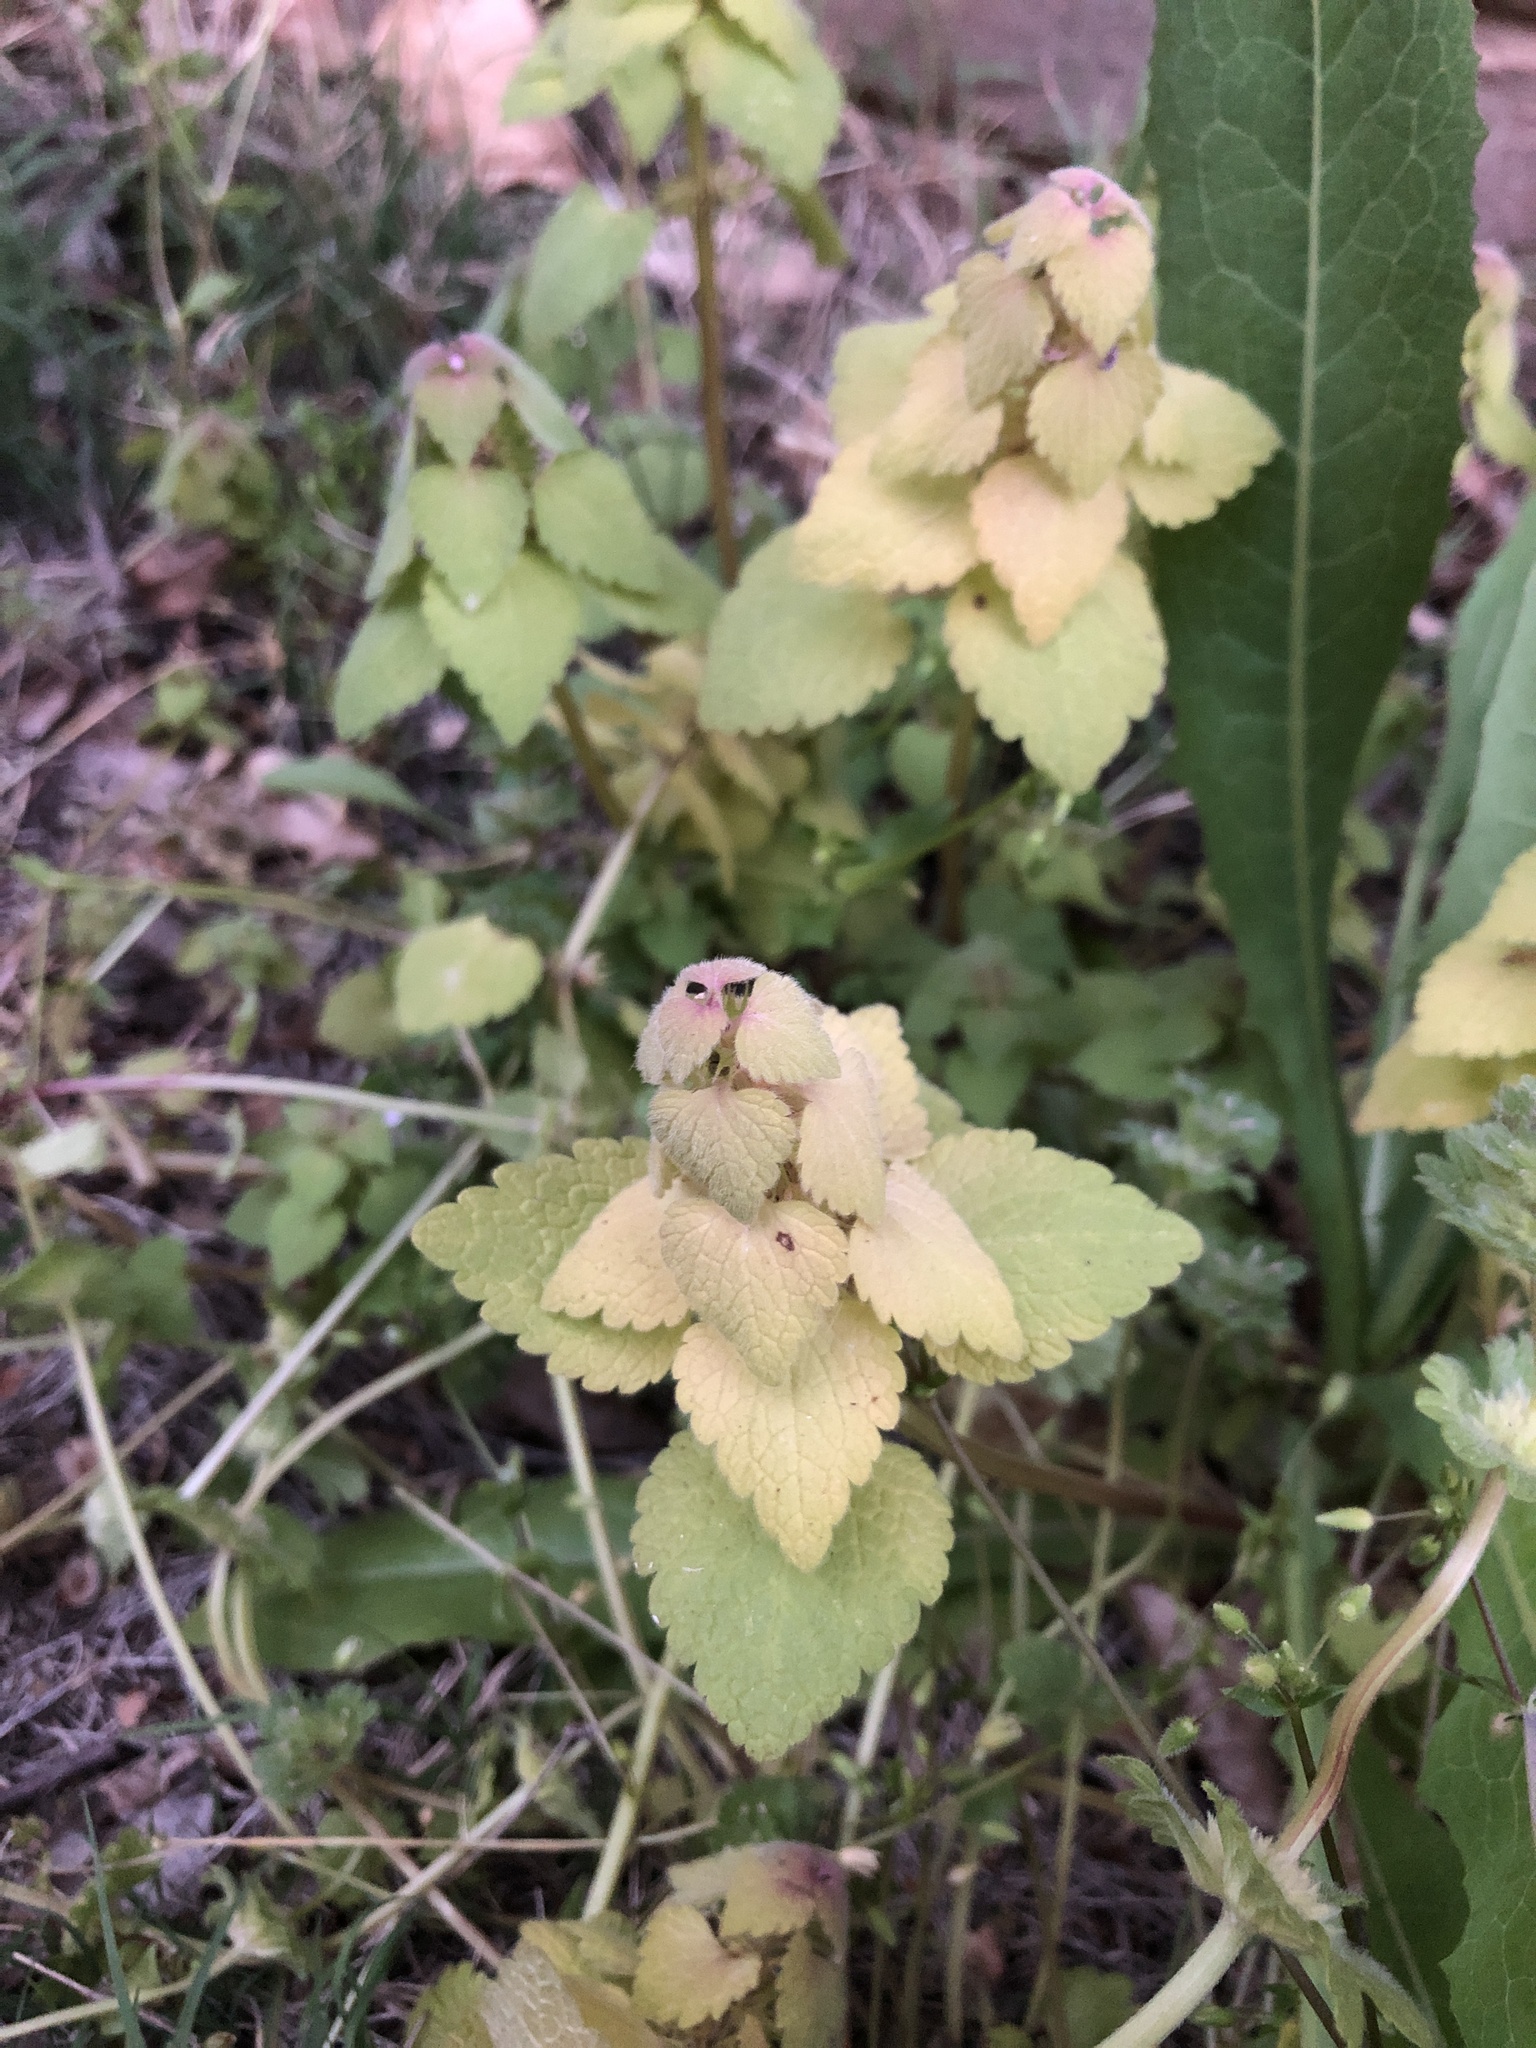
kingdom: Plantae
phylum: Tracheophyta
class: Magnoliopsida
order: Lamiales
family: Lamiaceae
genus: Lamium
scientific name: Lamium purpureum
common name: Red dead-nettle
